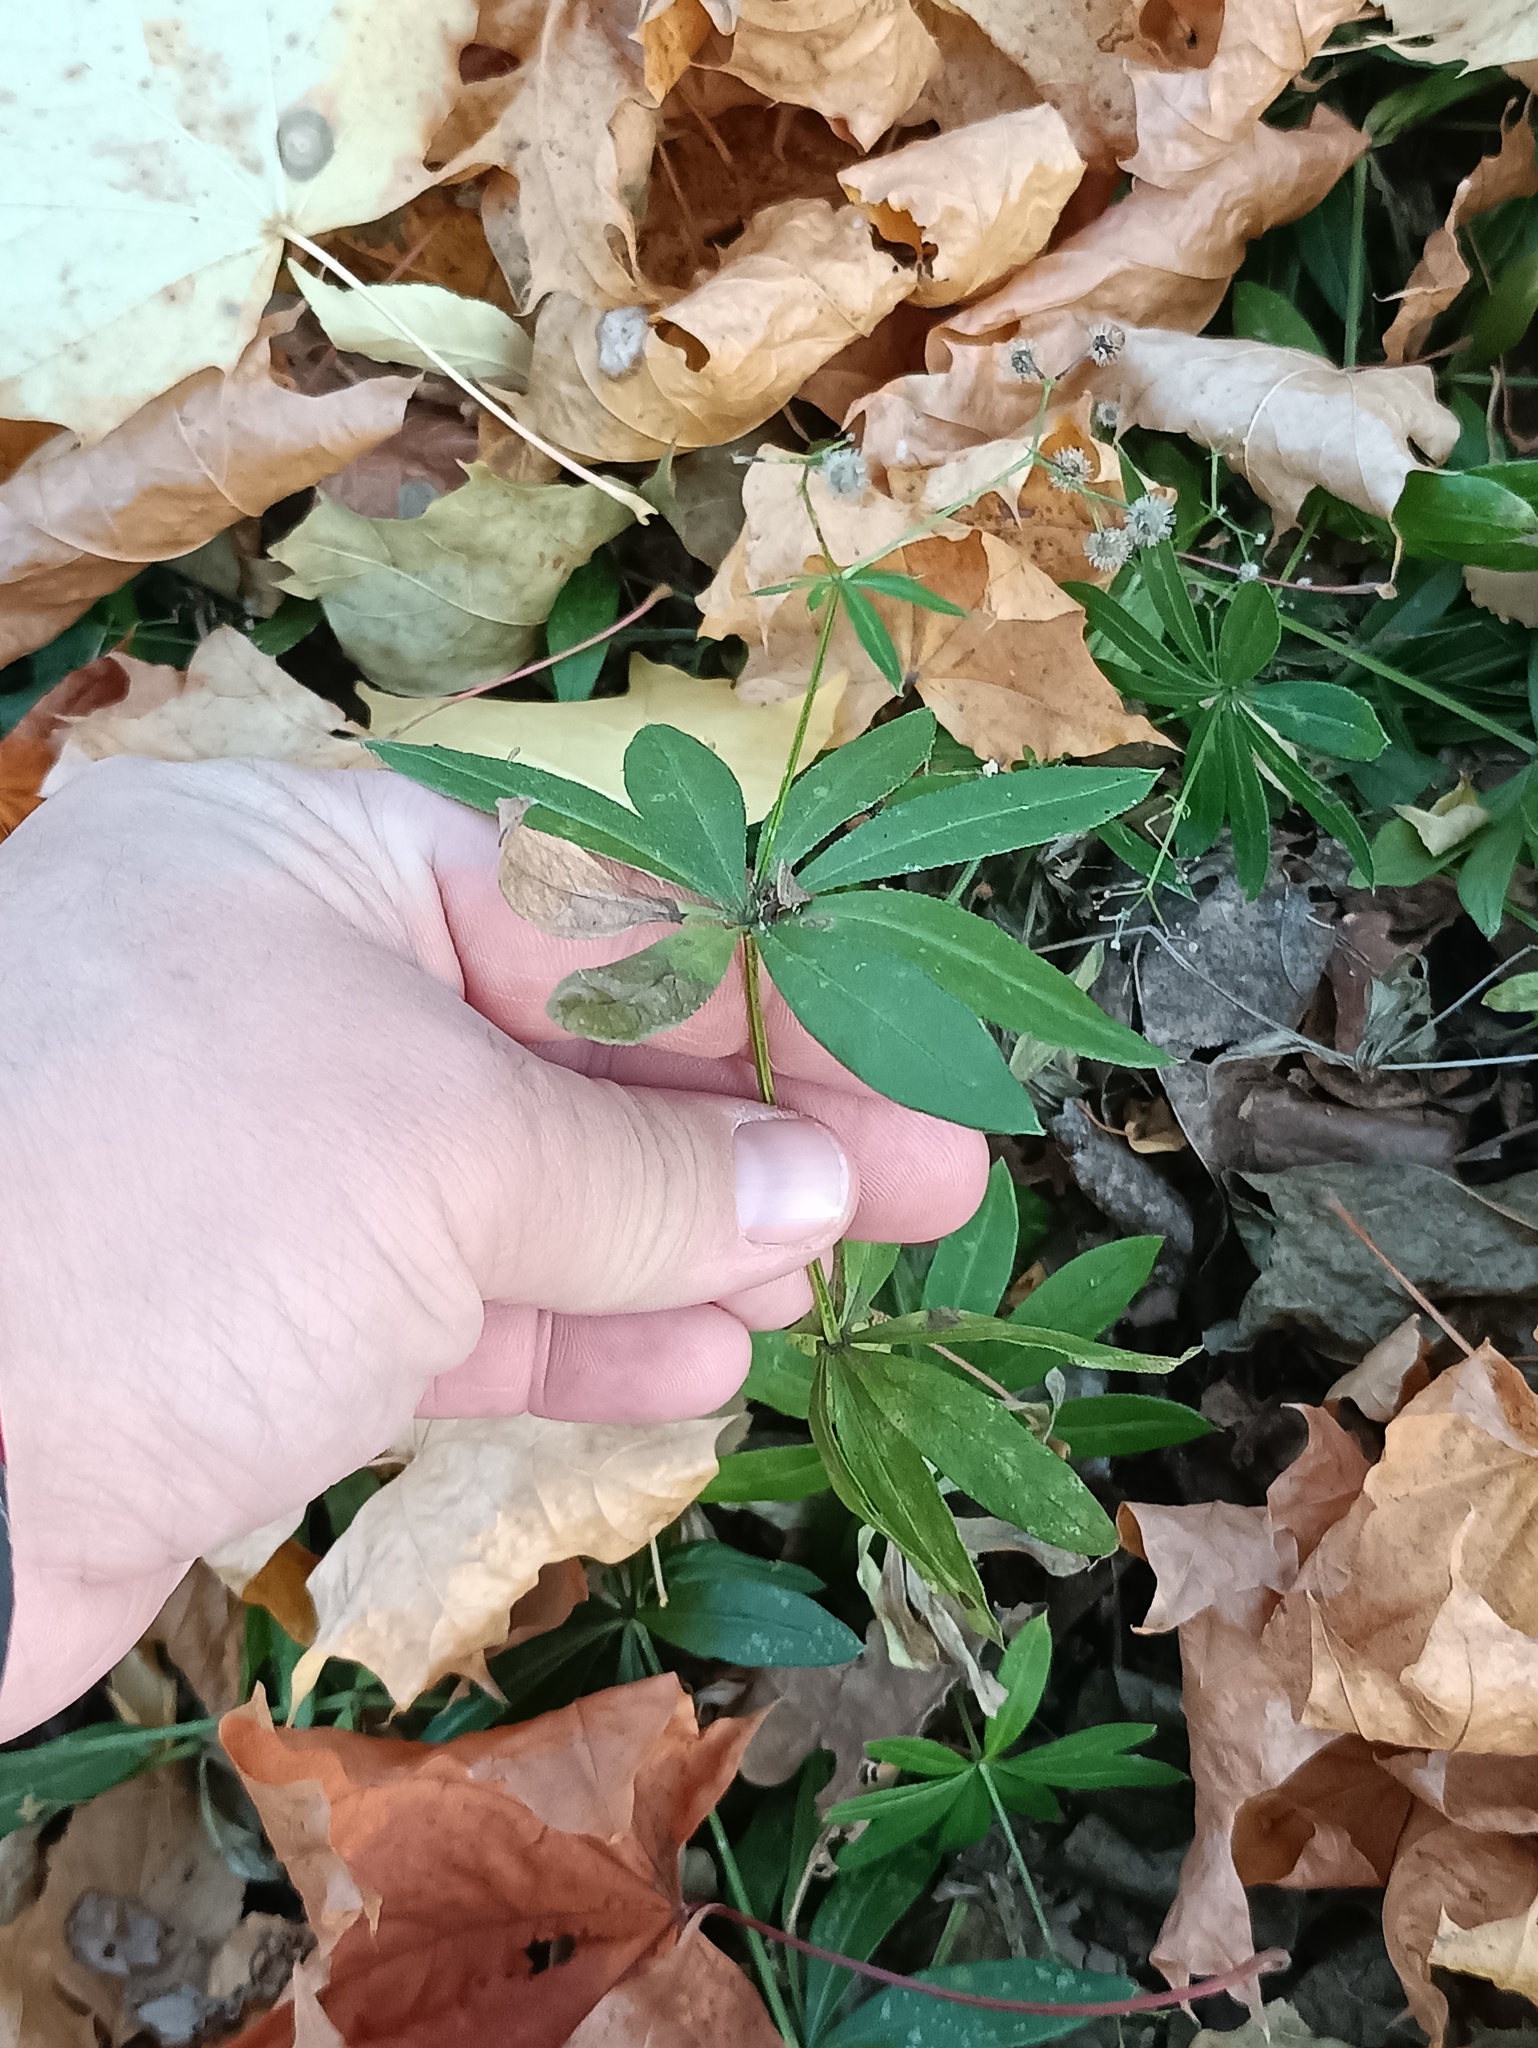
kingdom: Plantae
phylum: Tracheophyta
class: Magnoliopsida
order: Gentianales
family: Rubiaceae
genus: Galium
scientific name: Galium odoratum
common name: Sweet woodruff
